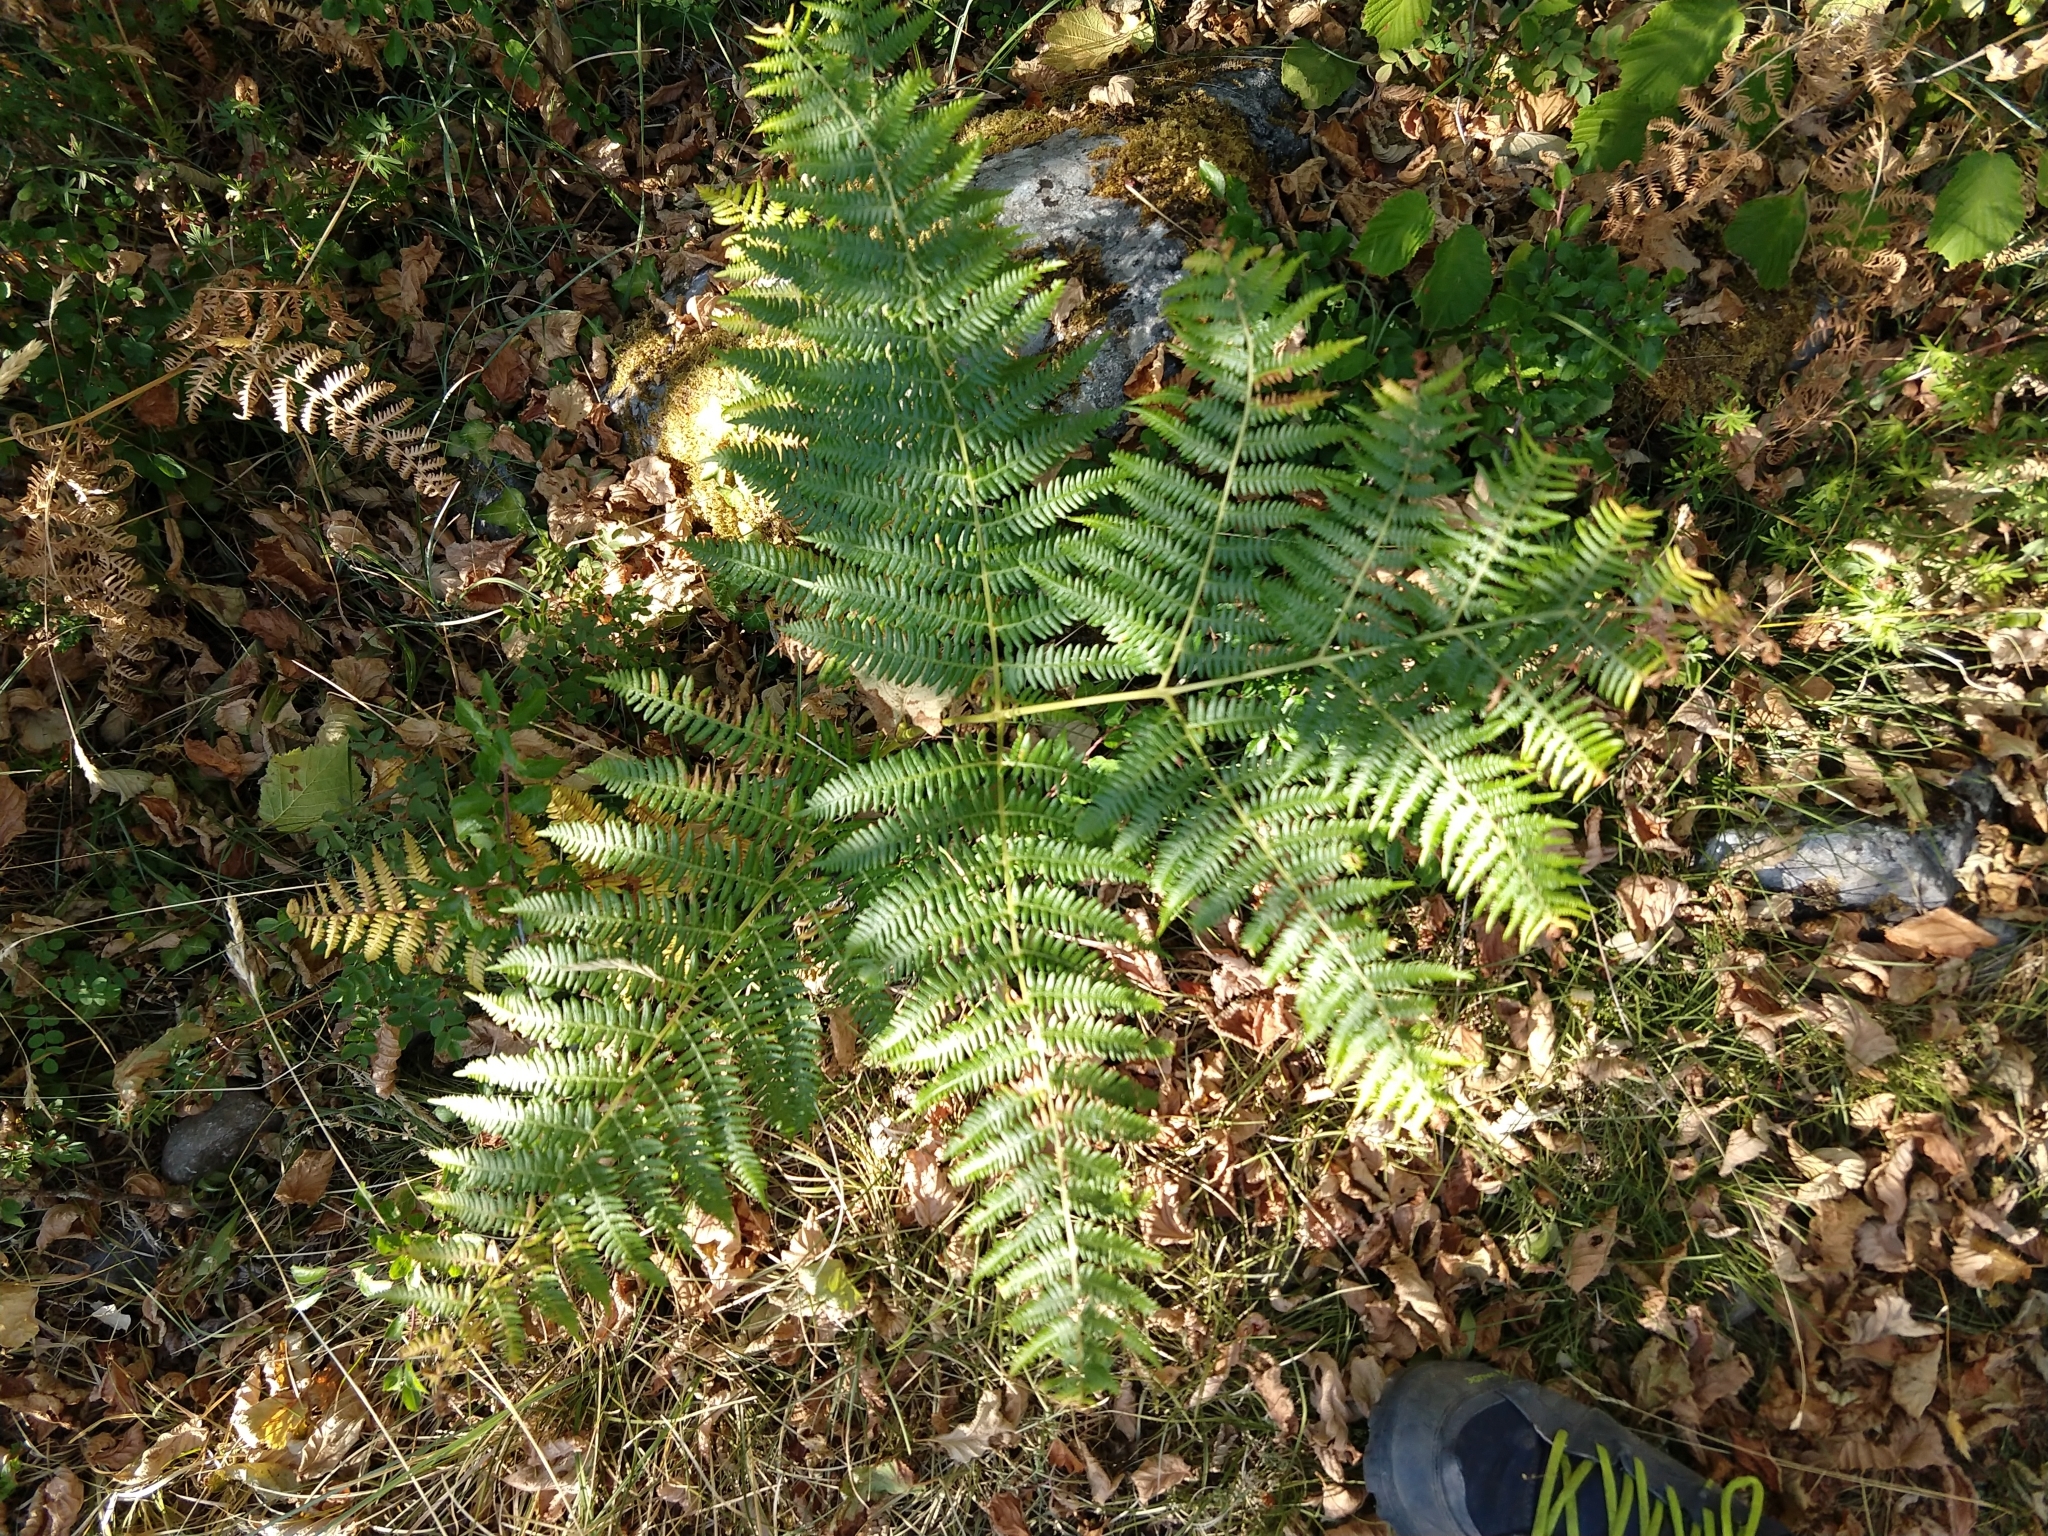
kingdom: Plantae
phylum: Tracheophyta
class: Polypodiopsida
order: Polypodiales
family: Dennstaedtiaceae
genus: Pteridium
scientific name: Pteridium aquilinum
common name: Bracken
